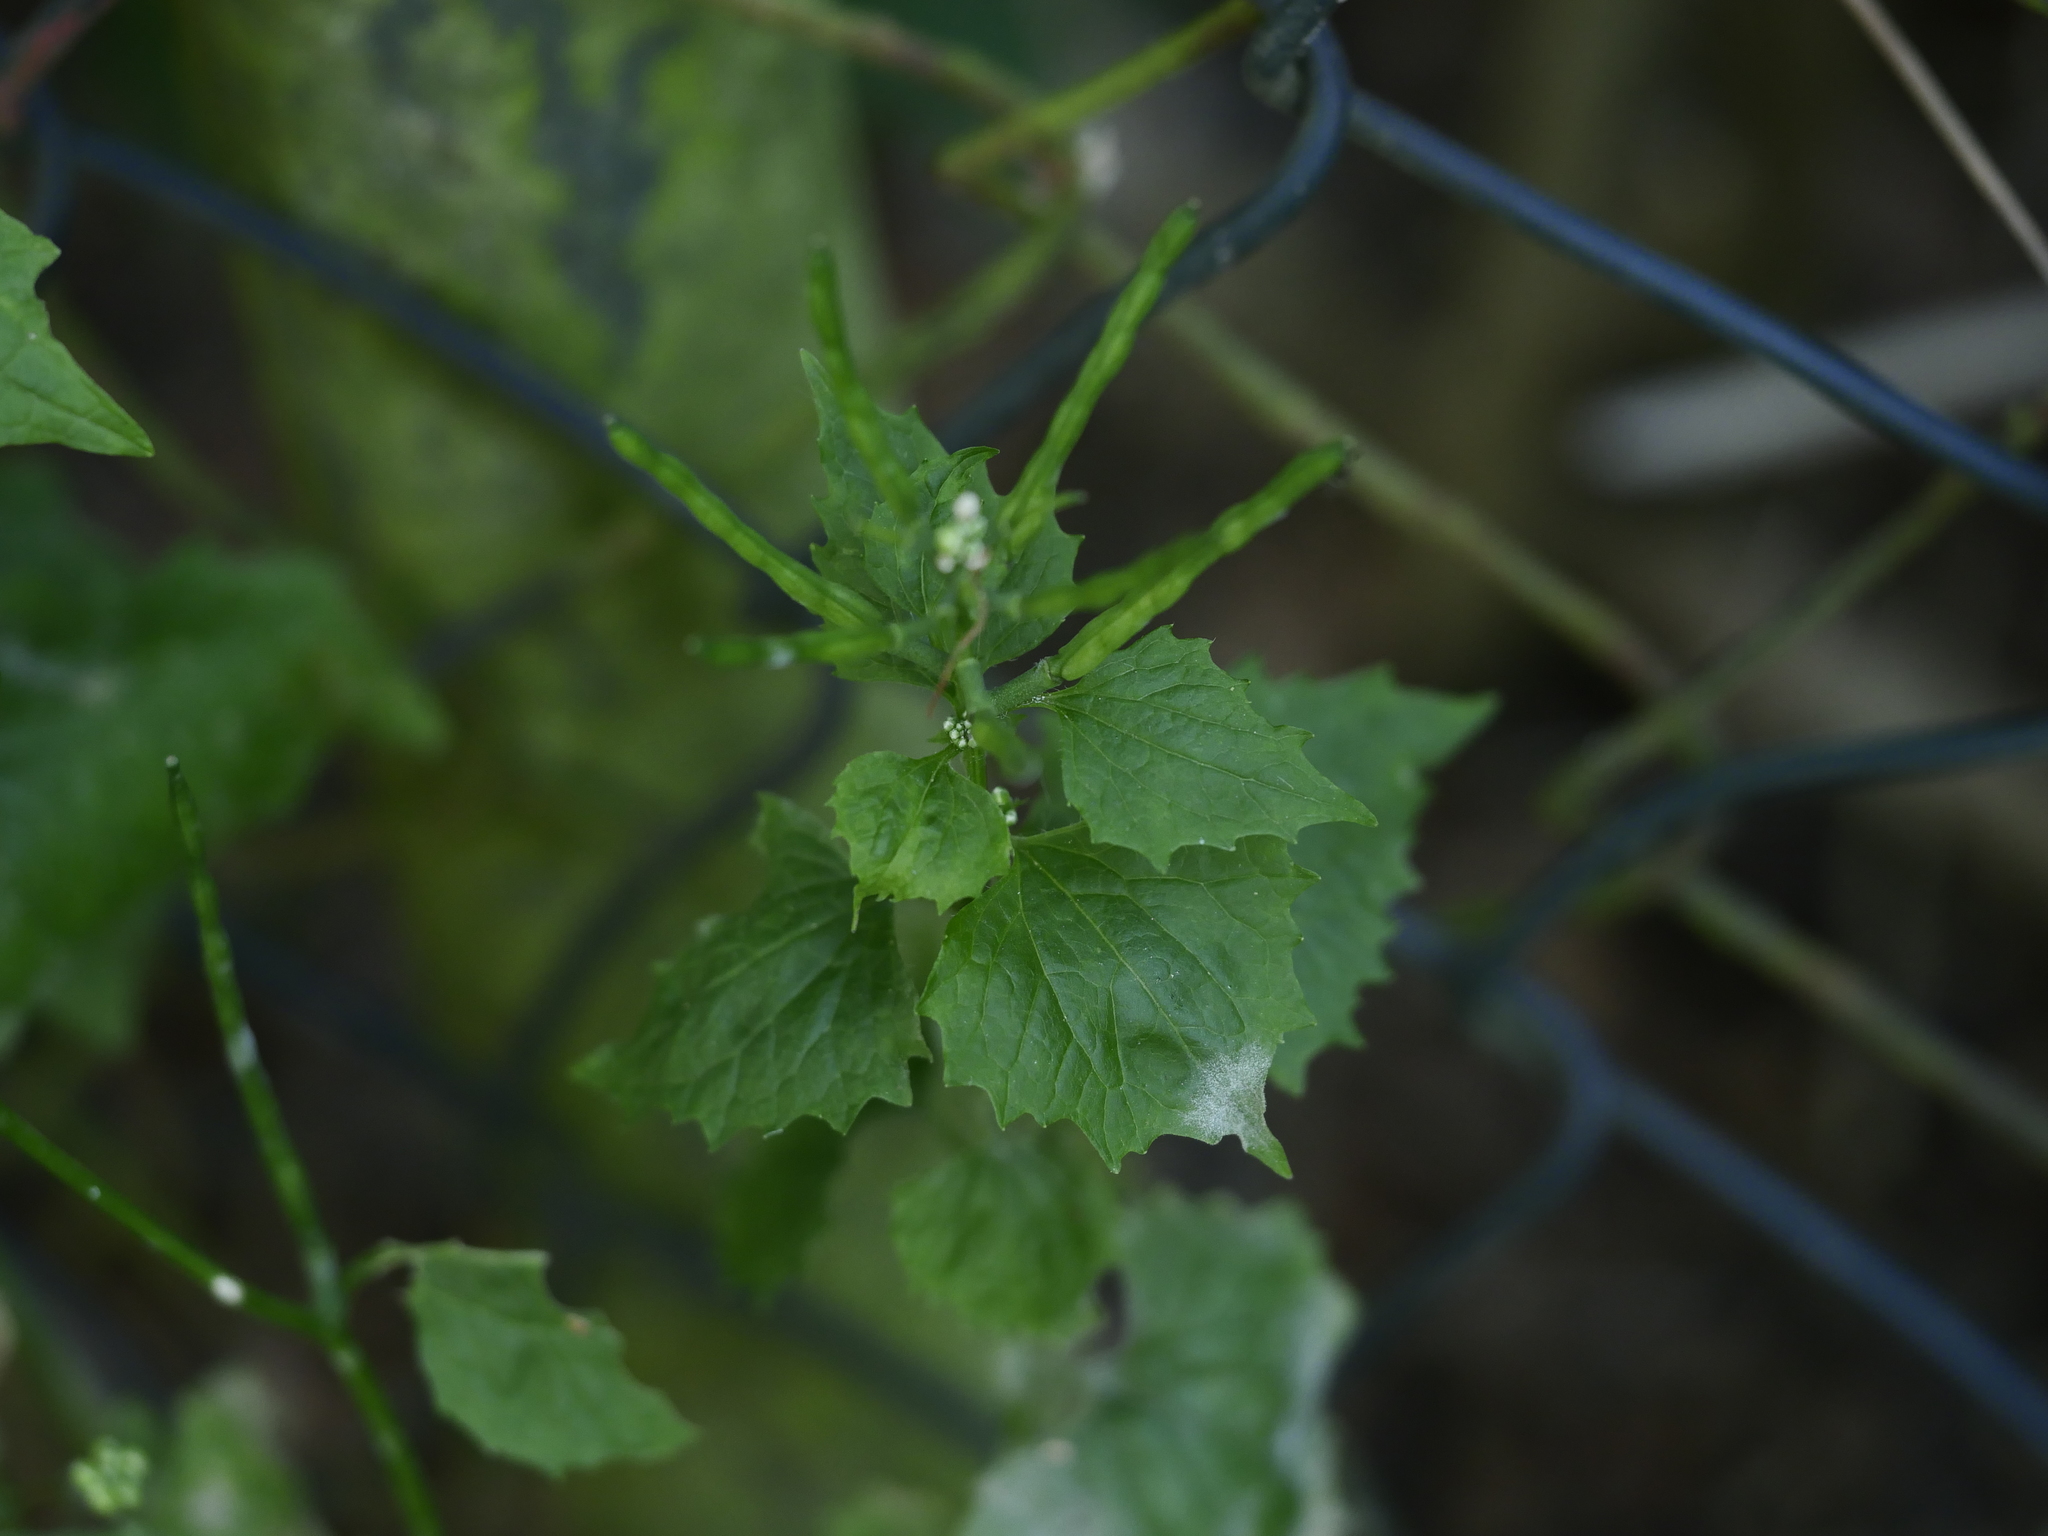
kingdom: Plantae
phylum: Tracheophyta
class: Magnoliopsida
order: Brassicales
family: Brassicaceae
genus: Alliaria
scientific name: Alliaria petiolata
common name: Garlic mustard
